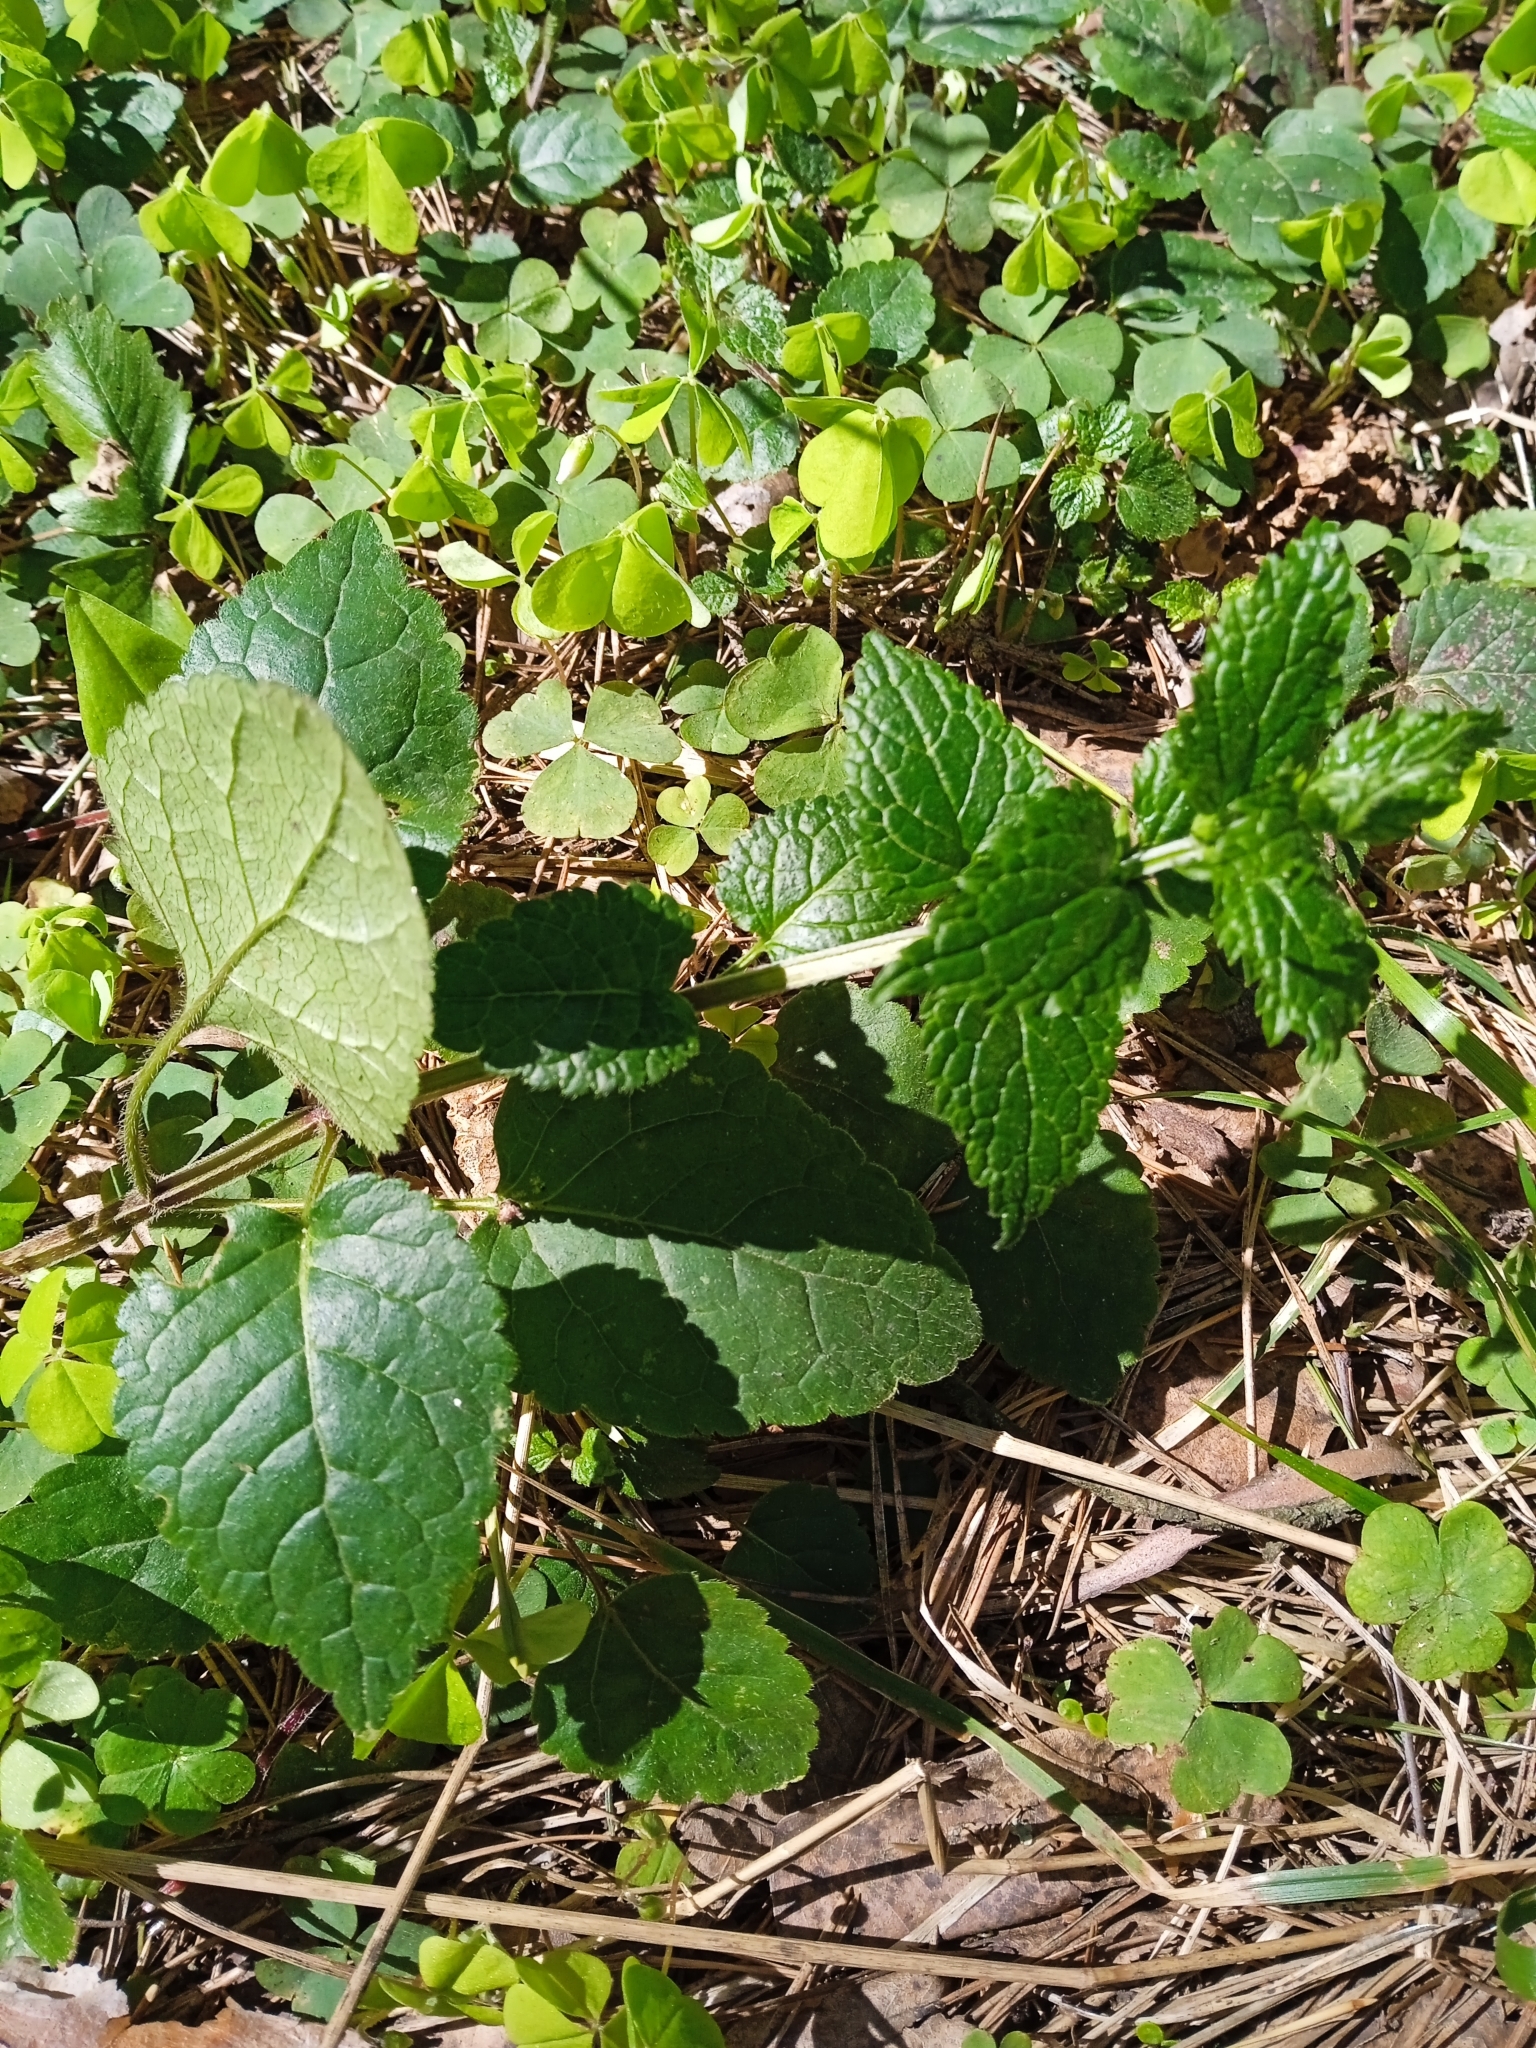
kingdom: Plantae
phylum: Tracheophyta
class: Magnoliopsida
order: Lamiales
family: Lamiaceae
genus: Lamium
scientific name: Lamium galeobdolon
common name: Yellow archangel
